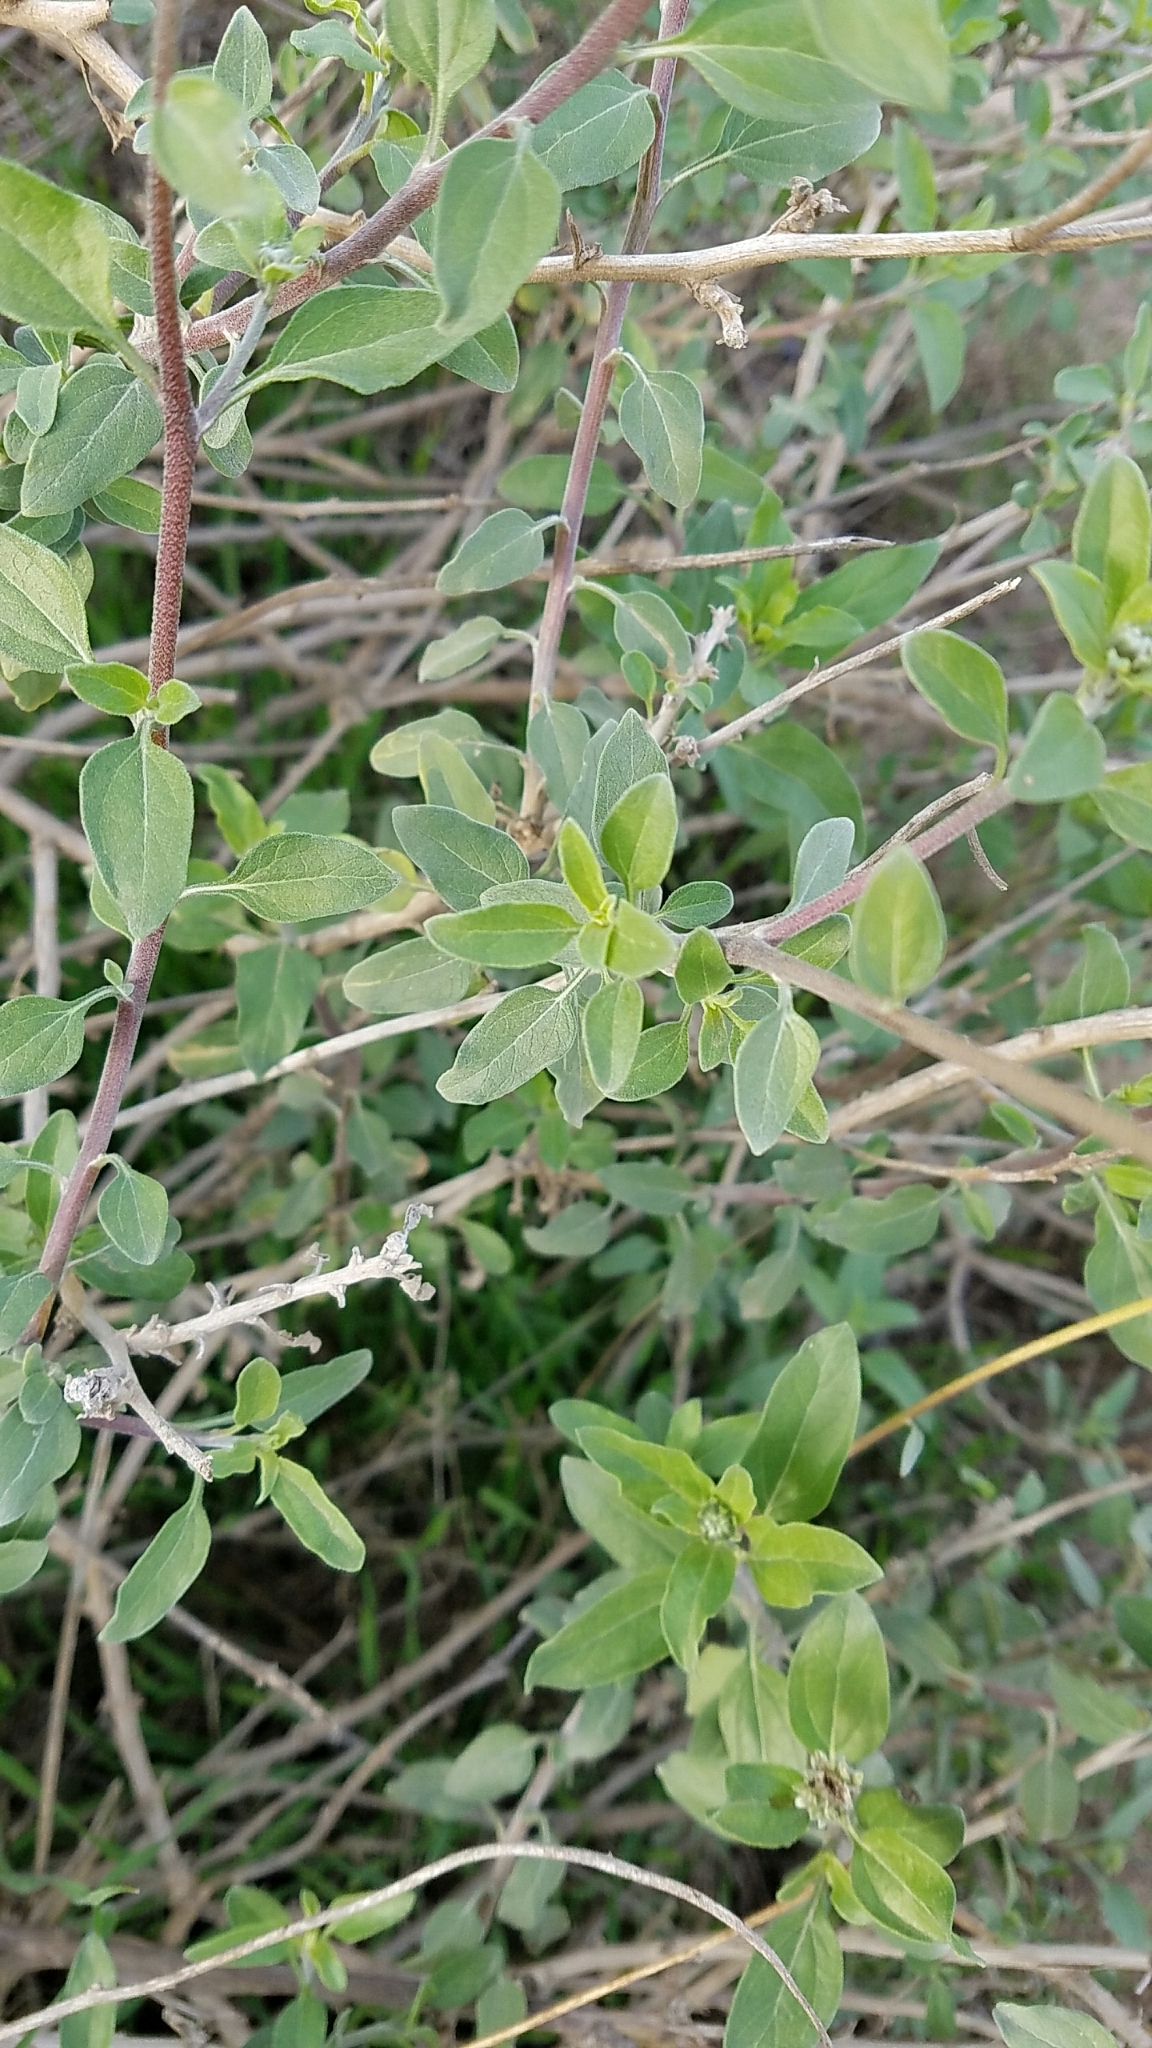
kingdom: Plantae
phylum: Tracheophyta
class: Magnoliopsida
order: Asterales
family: Asteraceae
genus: Encelia
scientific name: Encelia californica
